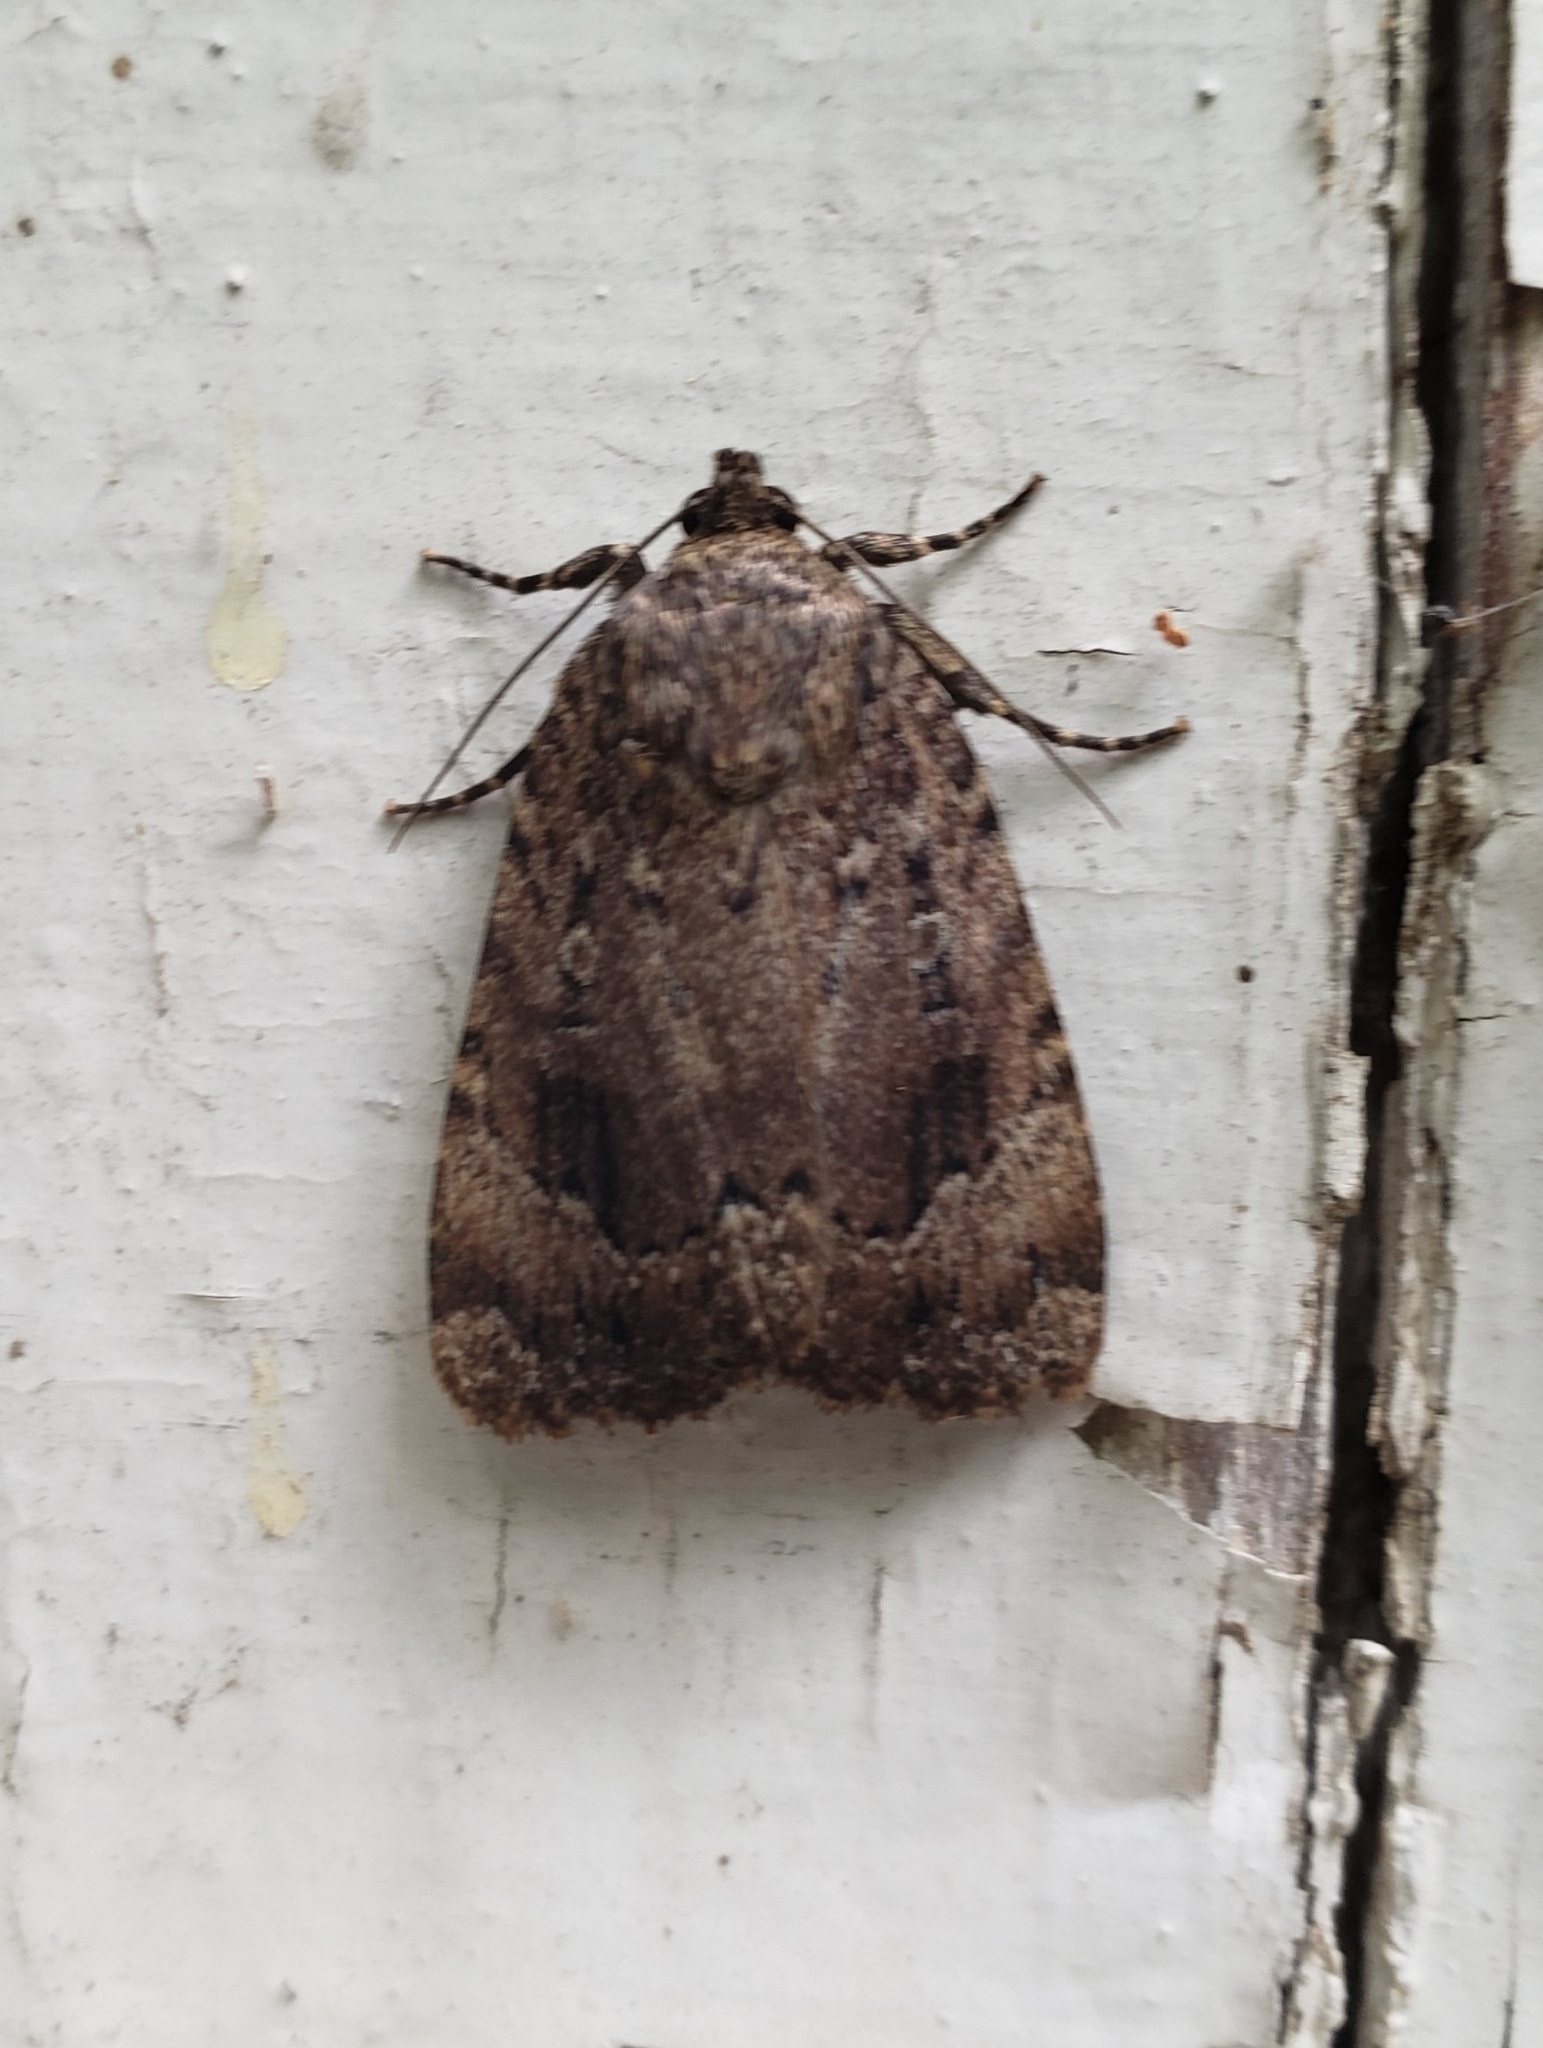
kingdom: Animalia
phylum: Arthropoda
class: Insecta
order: Lepidoptera
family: Noctuidae
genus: Amphipyra
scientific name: Amphipyra pyramidoides
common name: American copper underwing
